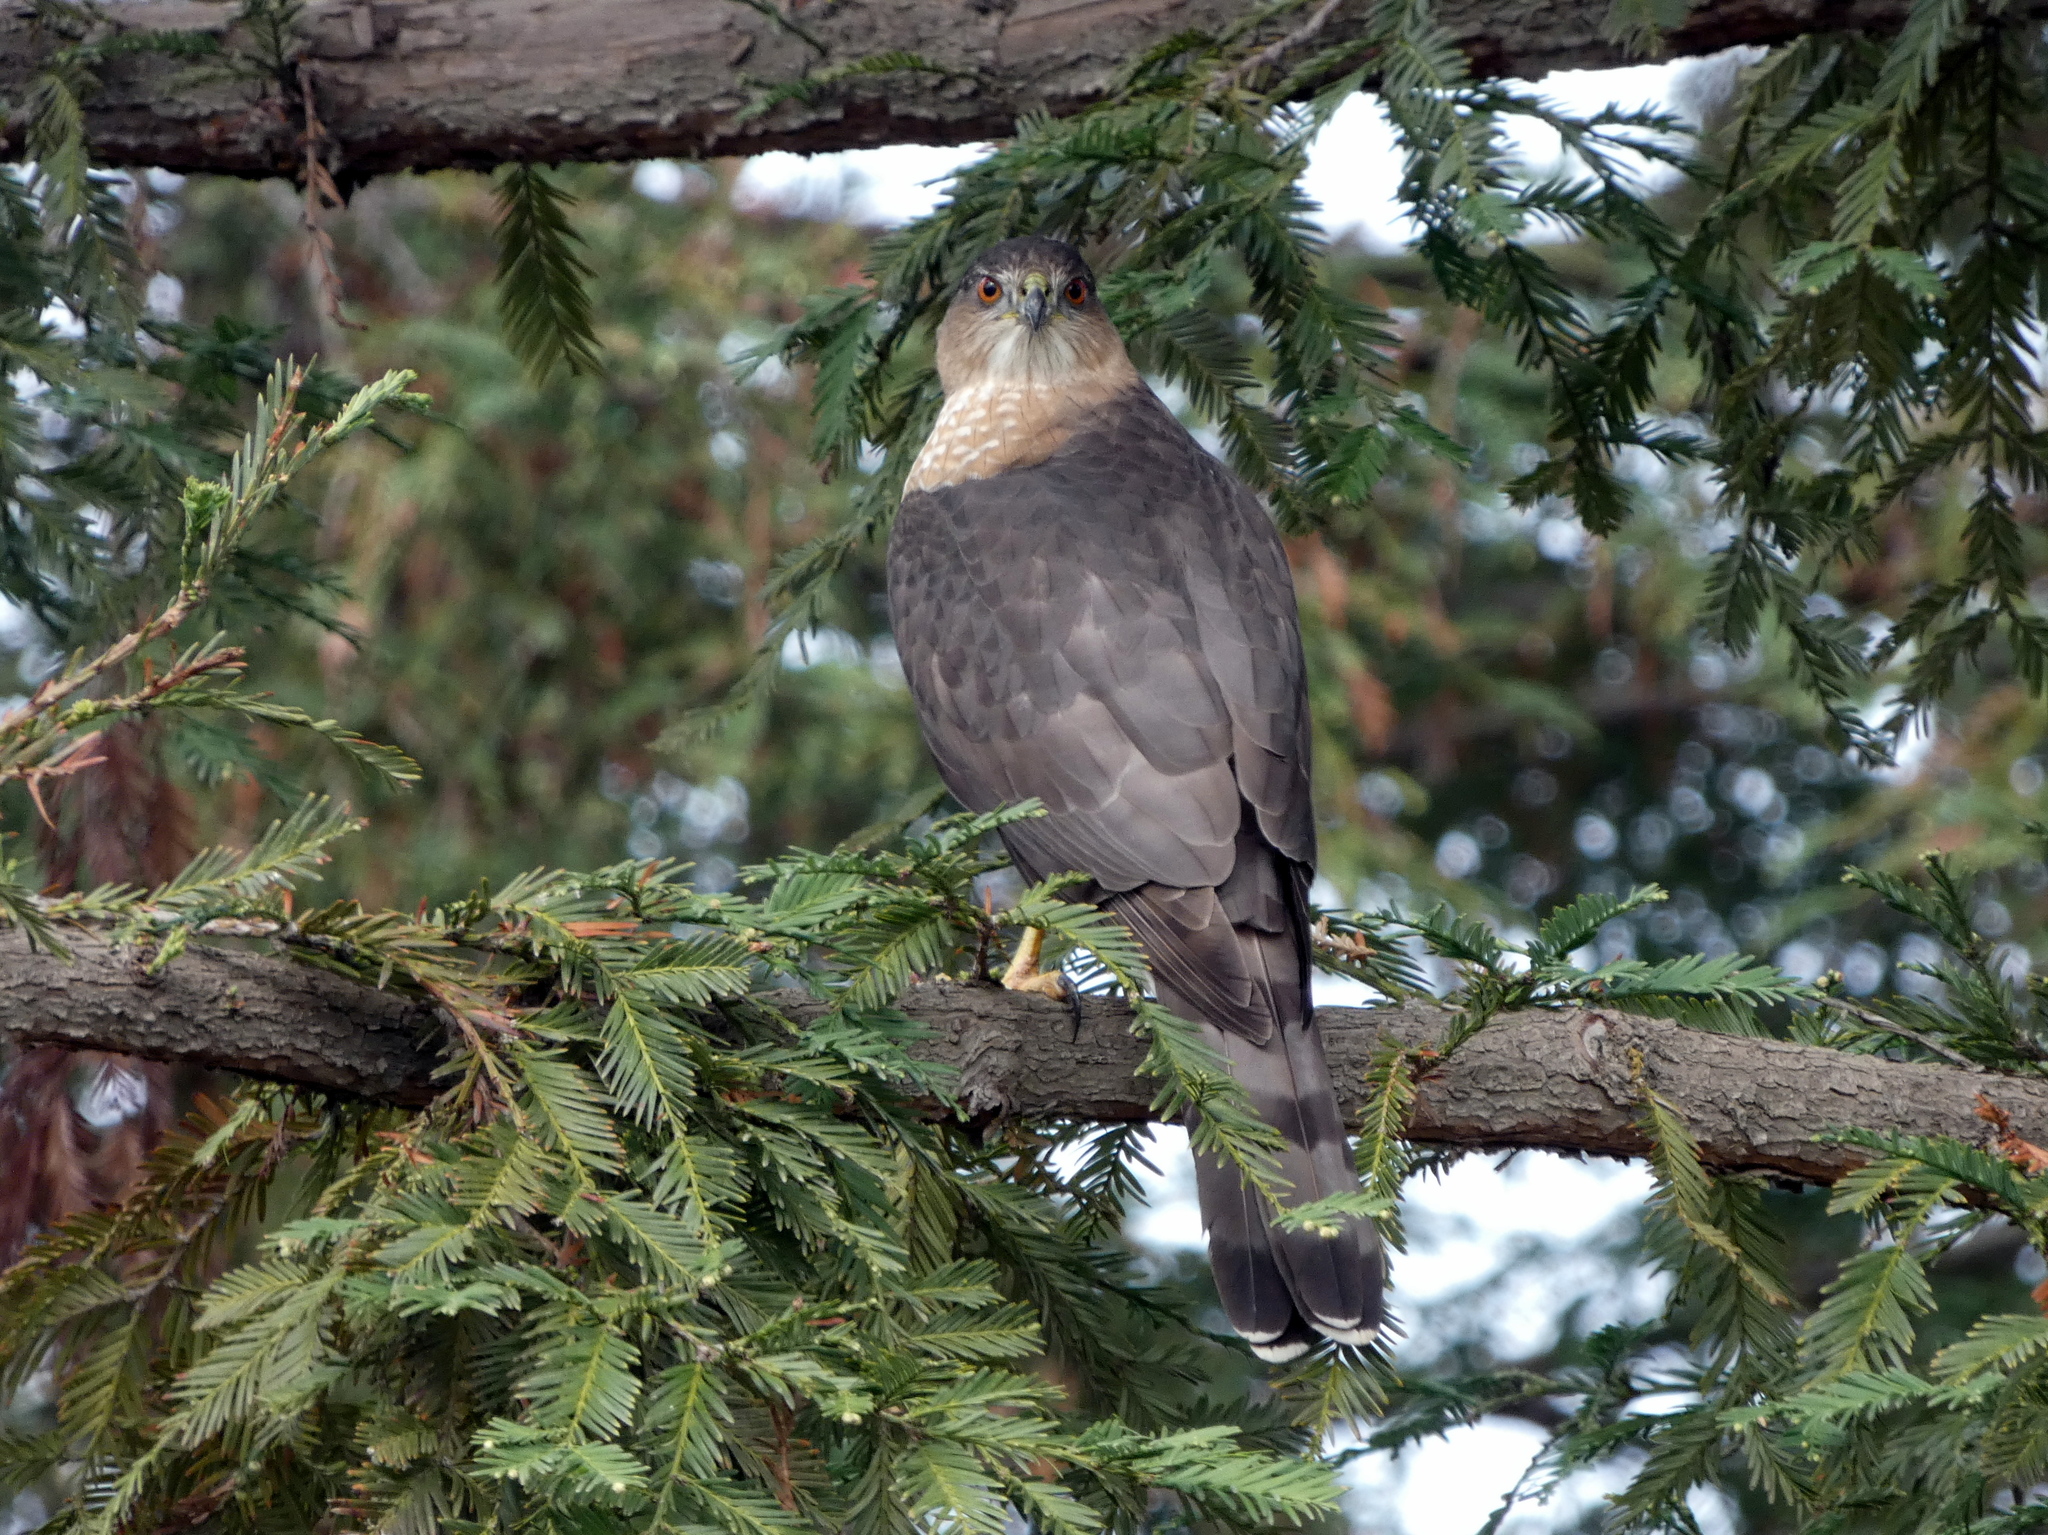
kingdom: Animalia
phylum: Chordata
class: Aves
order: Accipitriformes
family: Accipitridae
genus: Accipiter
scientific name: Accipiter cooperii
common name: Cooper's hawk
